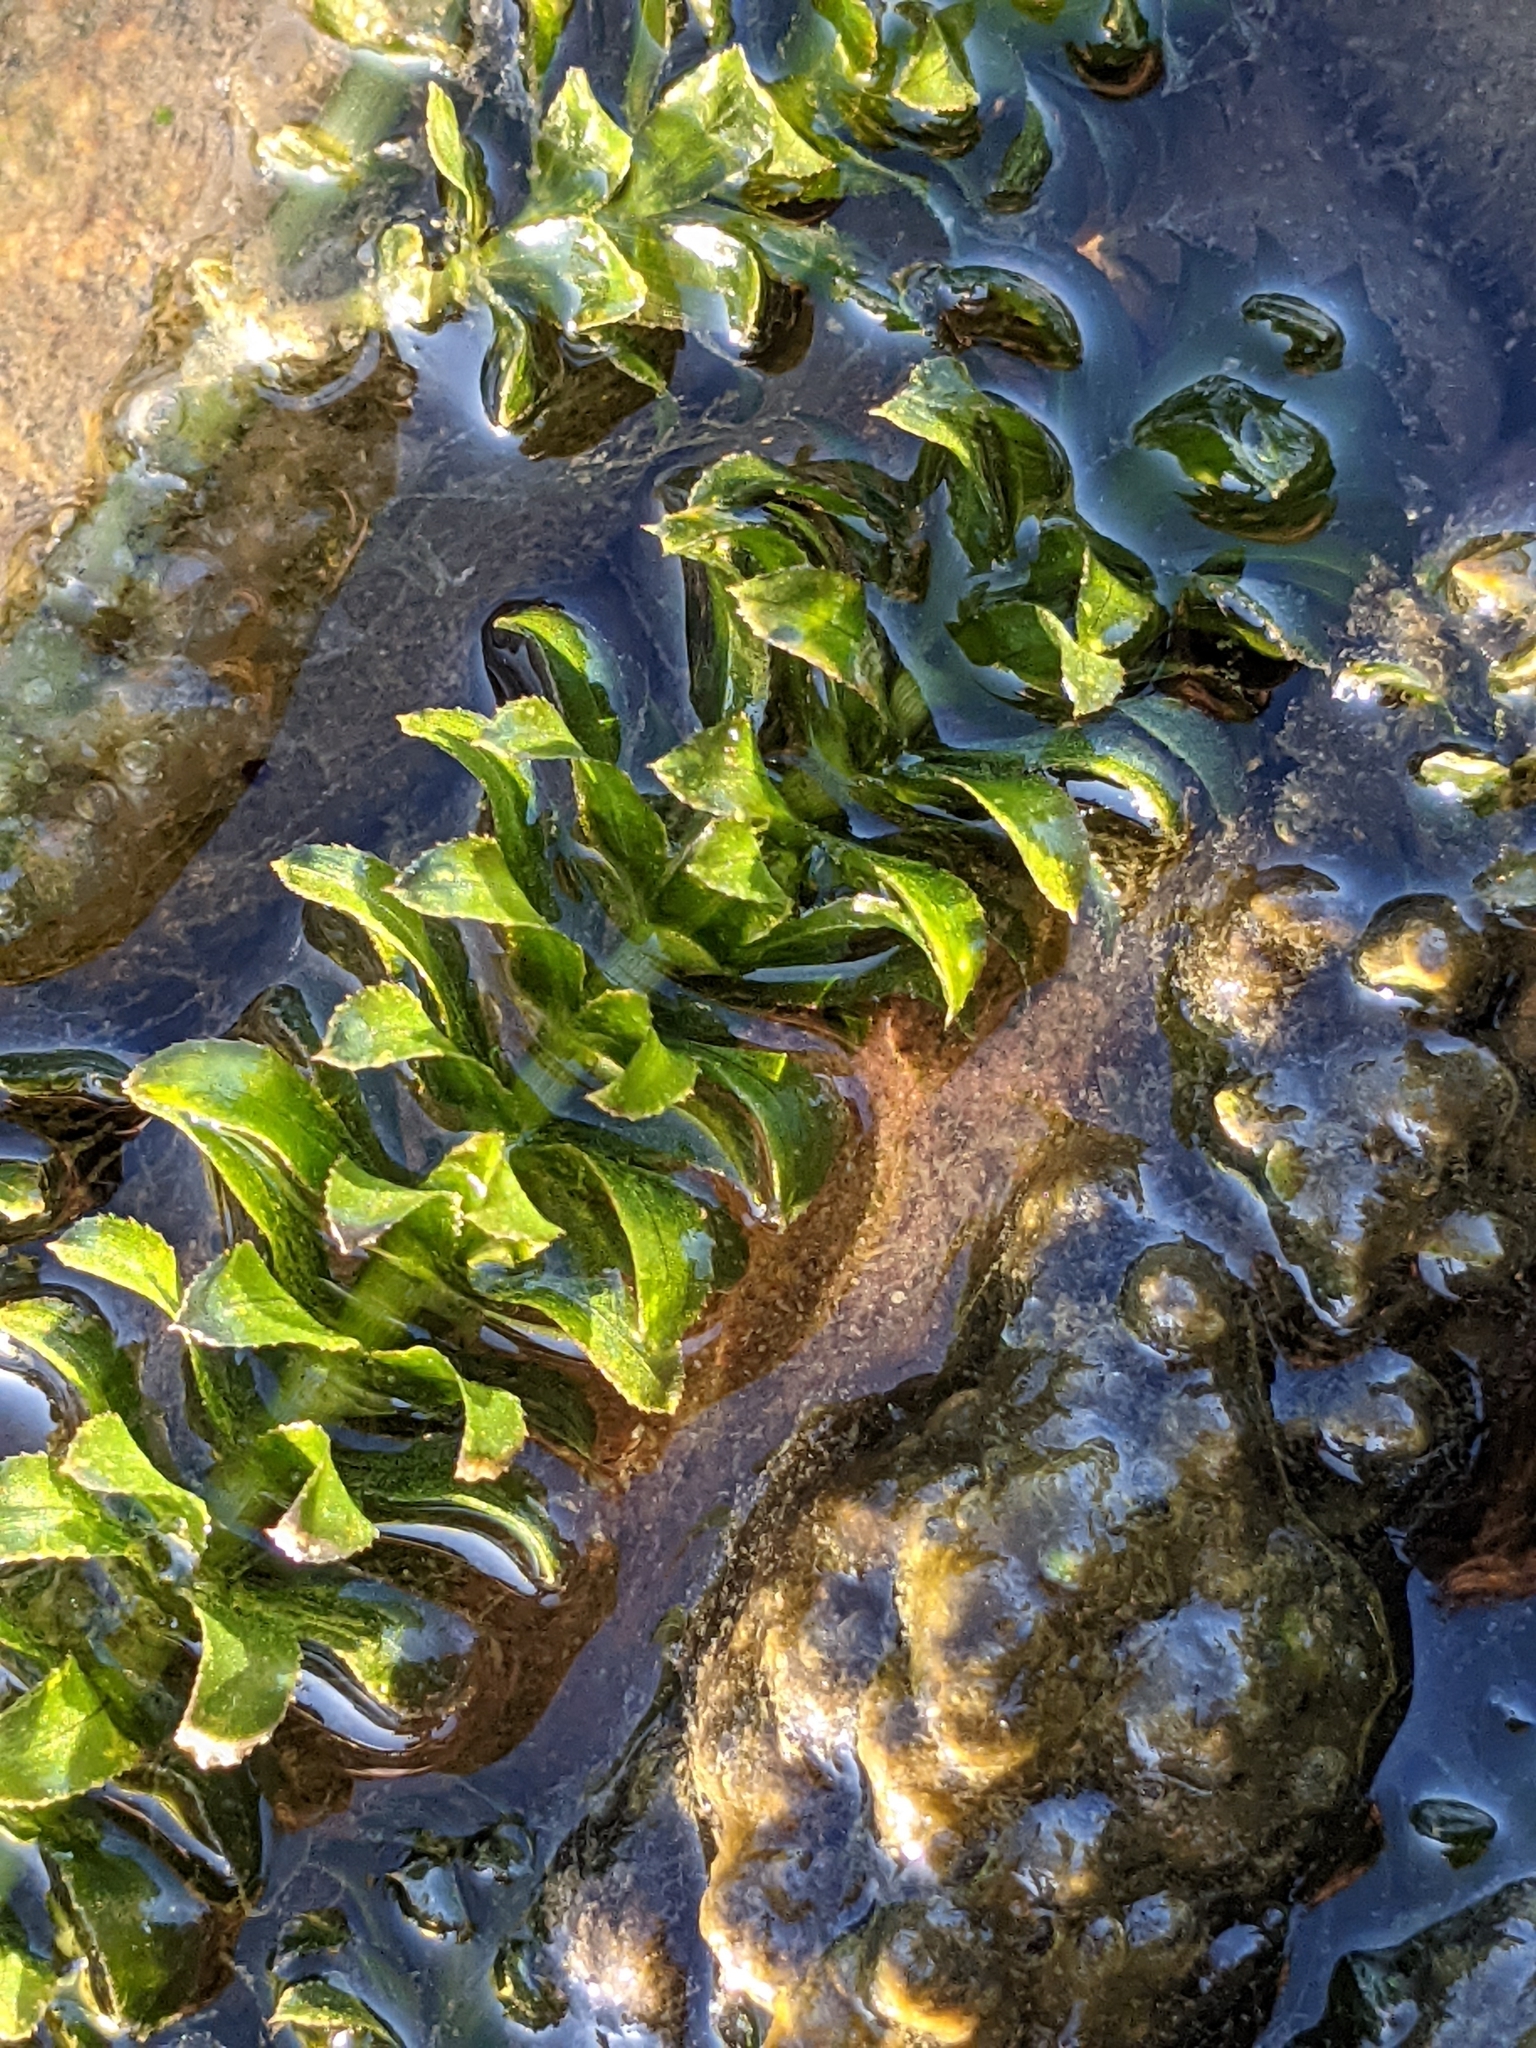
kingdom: Plantae
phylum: Tracheophyta
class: Liliopsida
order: Alismatales
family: Hydrocharitaceae
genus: Hydrilla
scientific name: Hydrilla verticillata
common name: Florida-elodea
